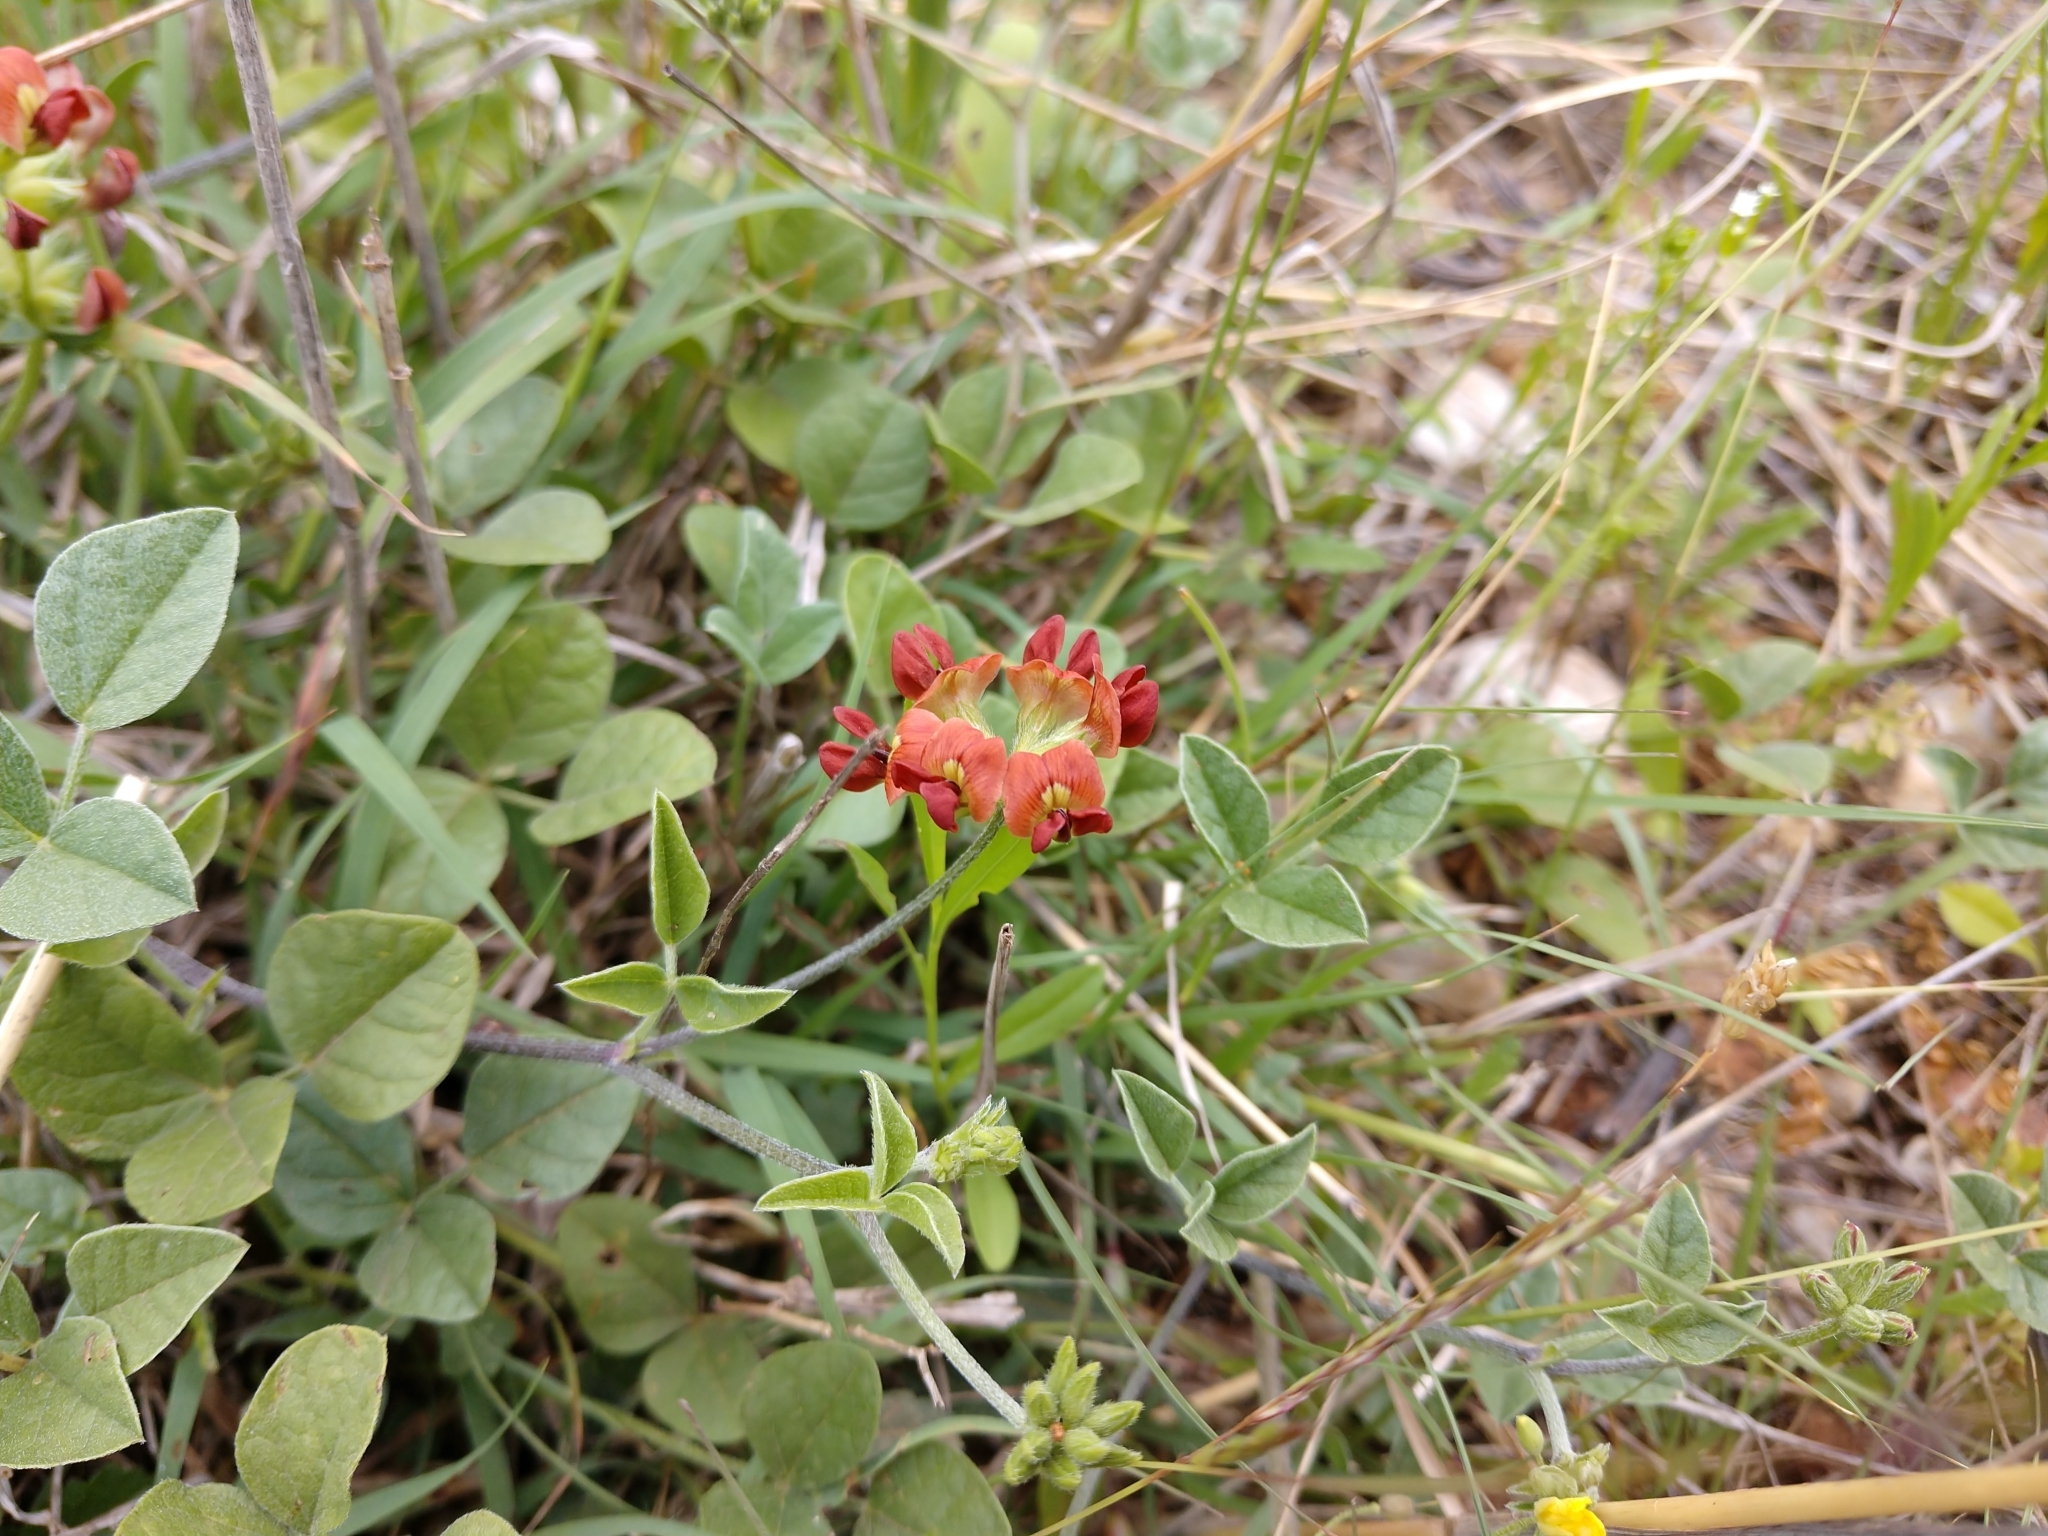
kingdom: Plantae
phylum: Tracheophyta
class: Magnoliopsida
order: Fabales
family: Fabaceae
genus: Pediomelum
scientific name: Pediomelum rhombifolium
